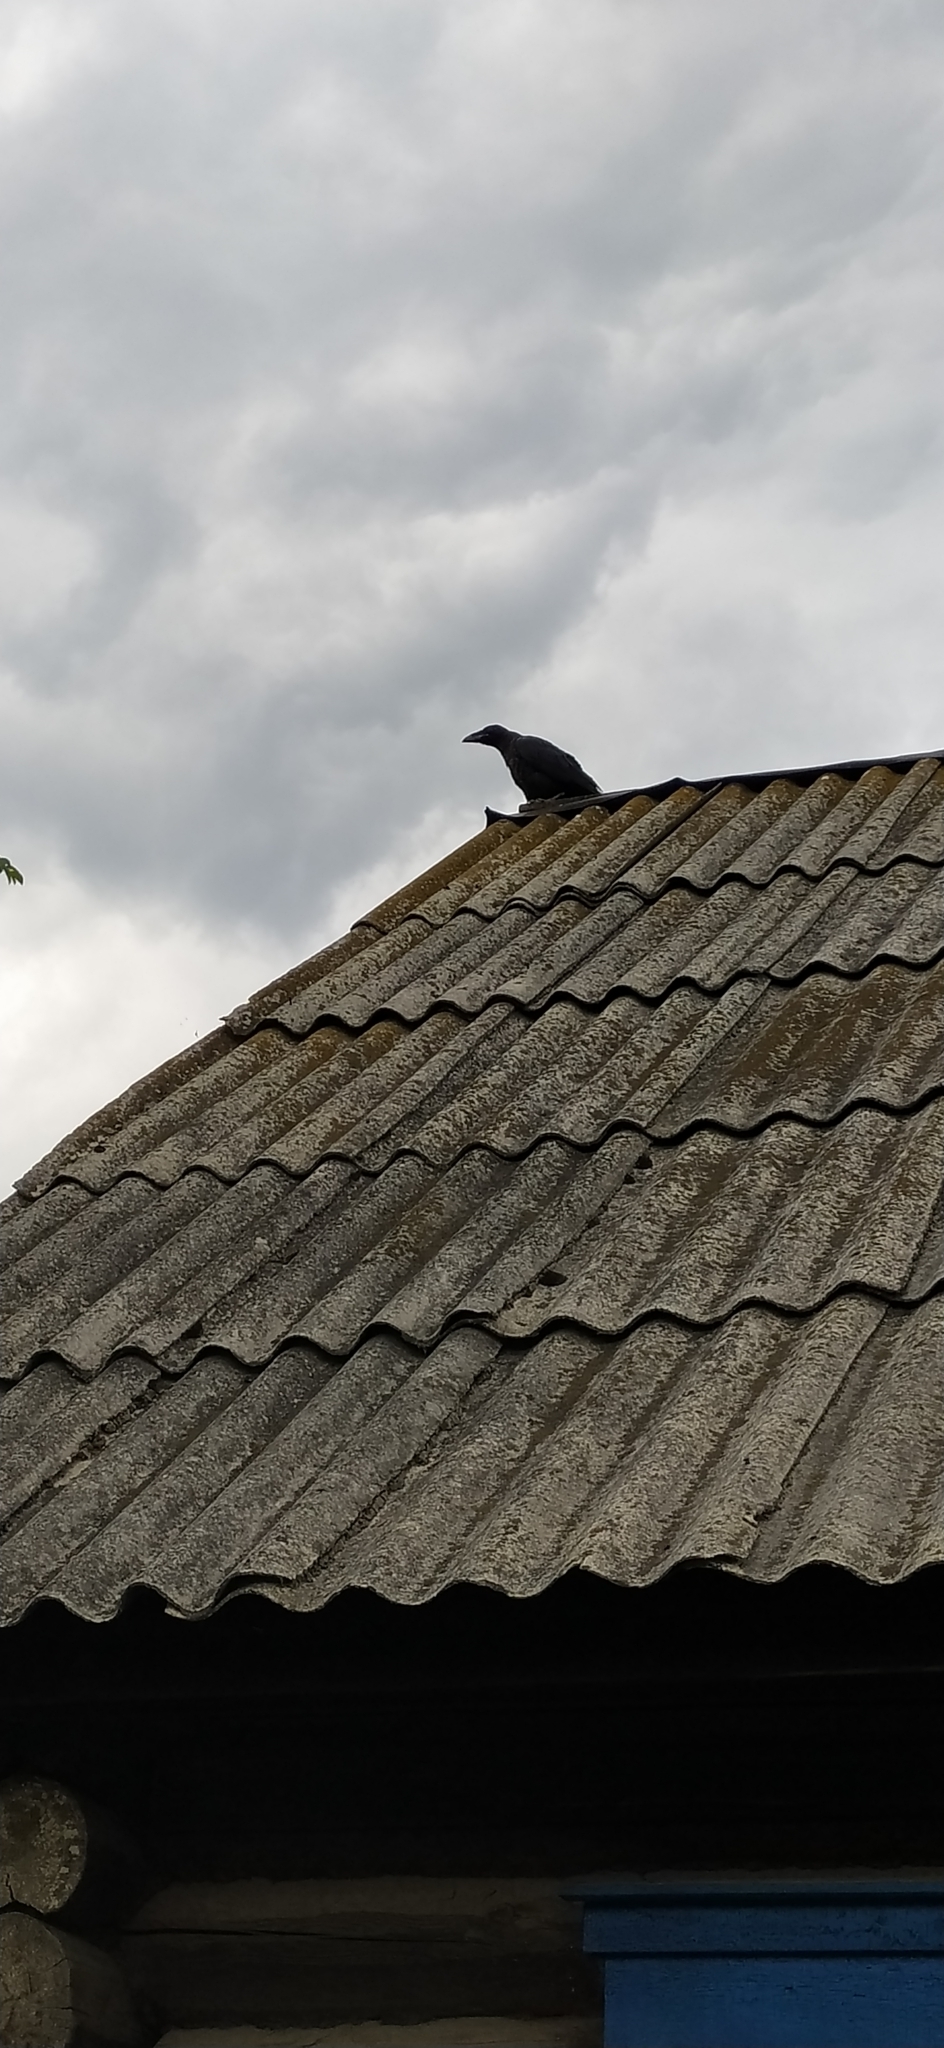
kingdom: Animalia
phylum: Chordata
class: Aves
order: Passeriformes
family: Corvidae
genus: Corvus
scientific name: Corvus corax
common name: Common raven
